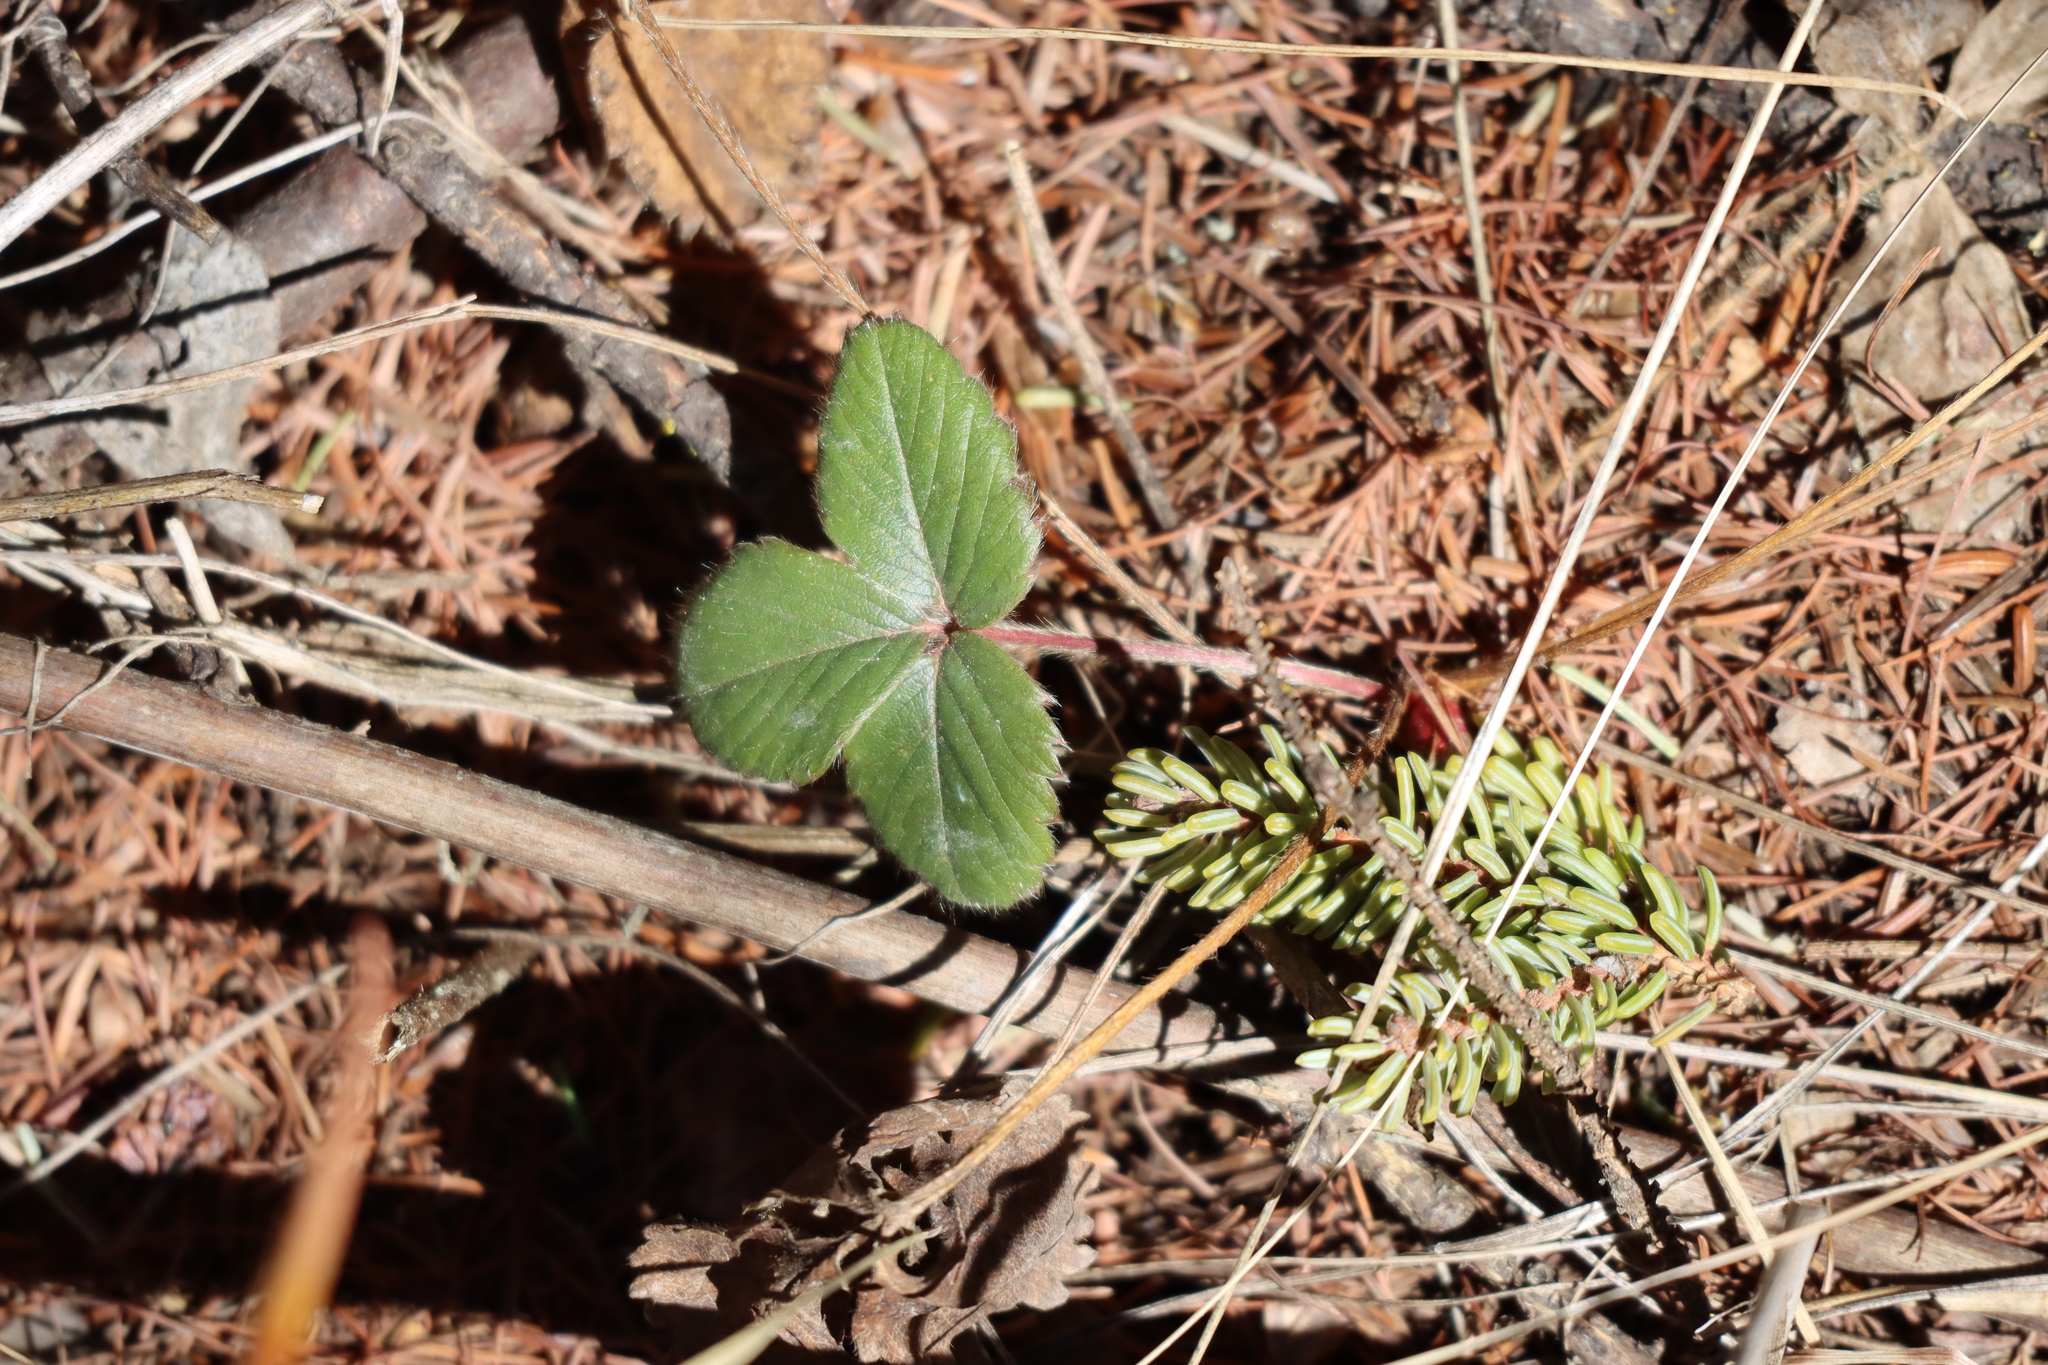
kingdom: Plantae
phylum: Tracheophyta
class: Magnoliopsida
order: Rosales
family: Rosaceae
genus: Fragaria
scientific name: Fragaria virginiana
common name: Thickleaved wild strawberry
